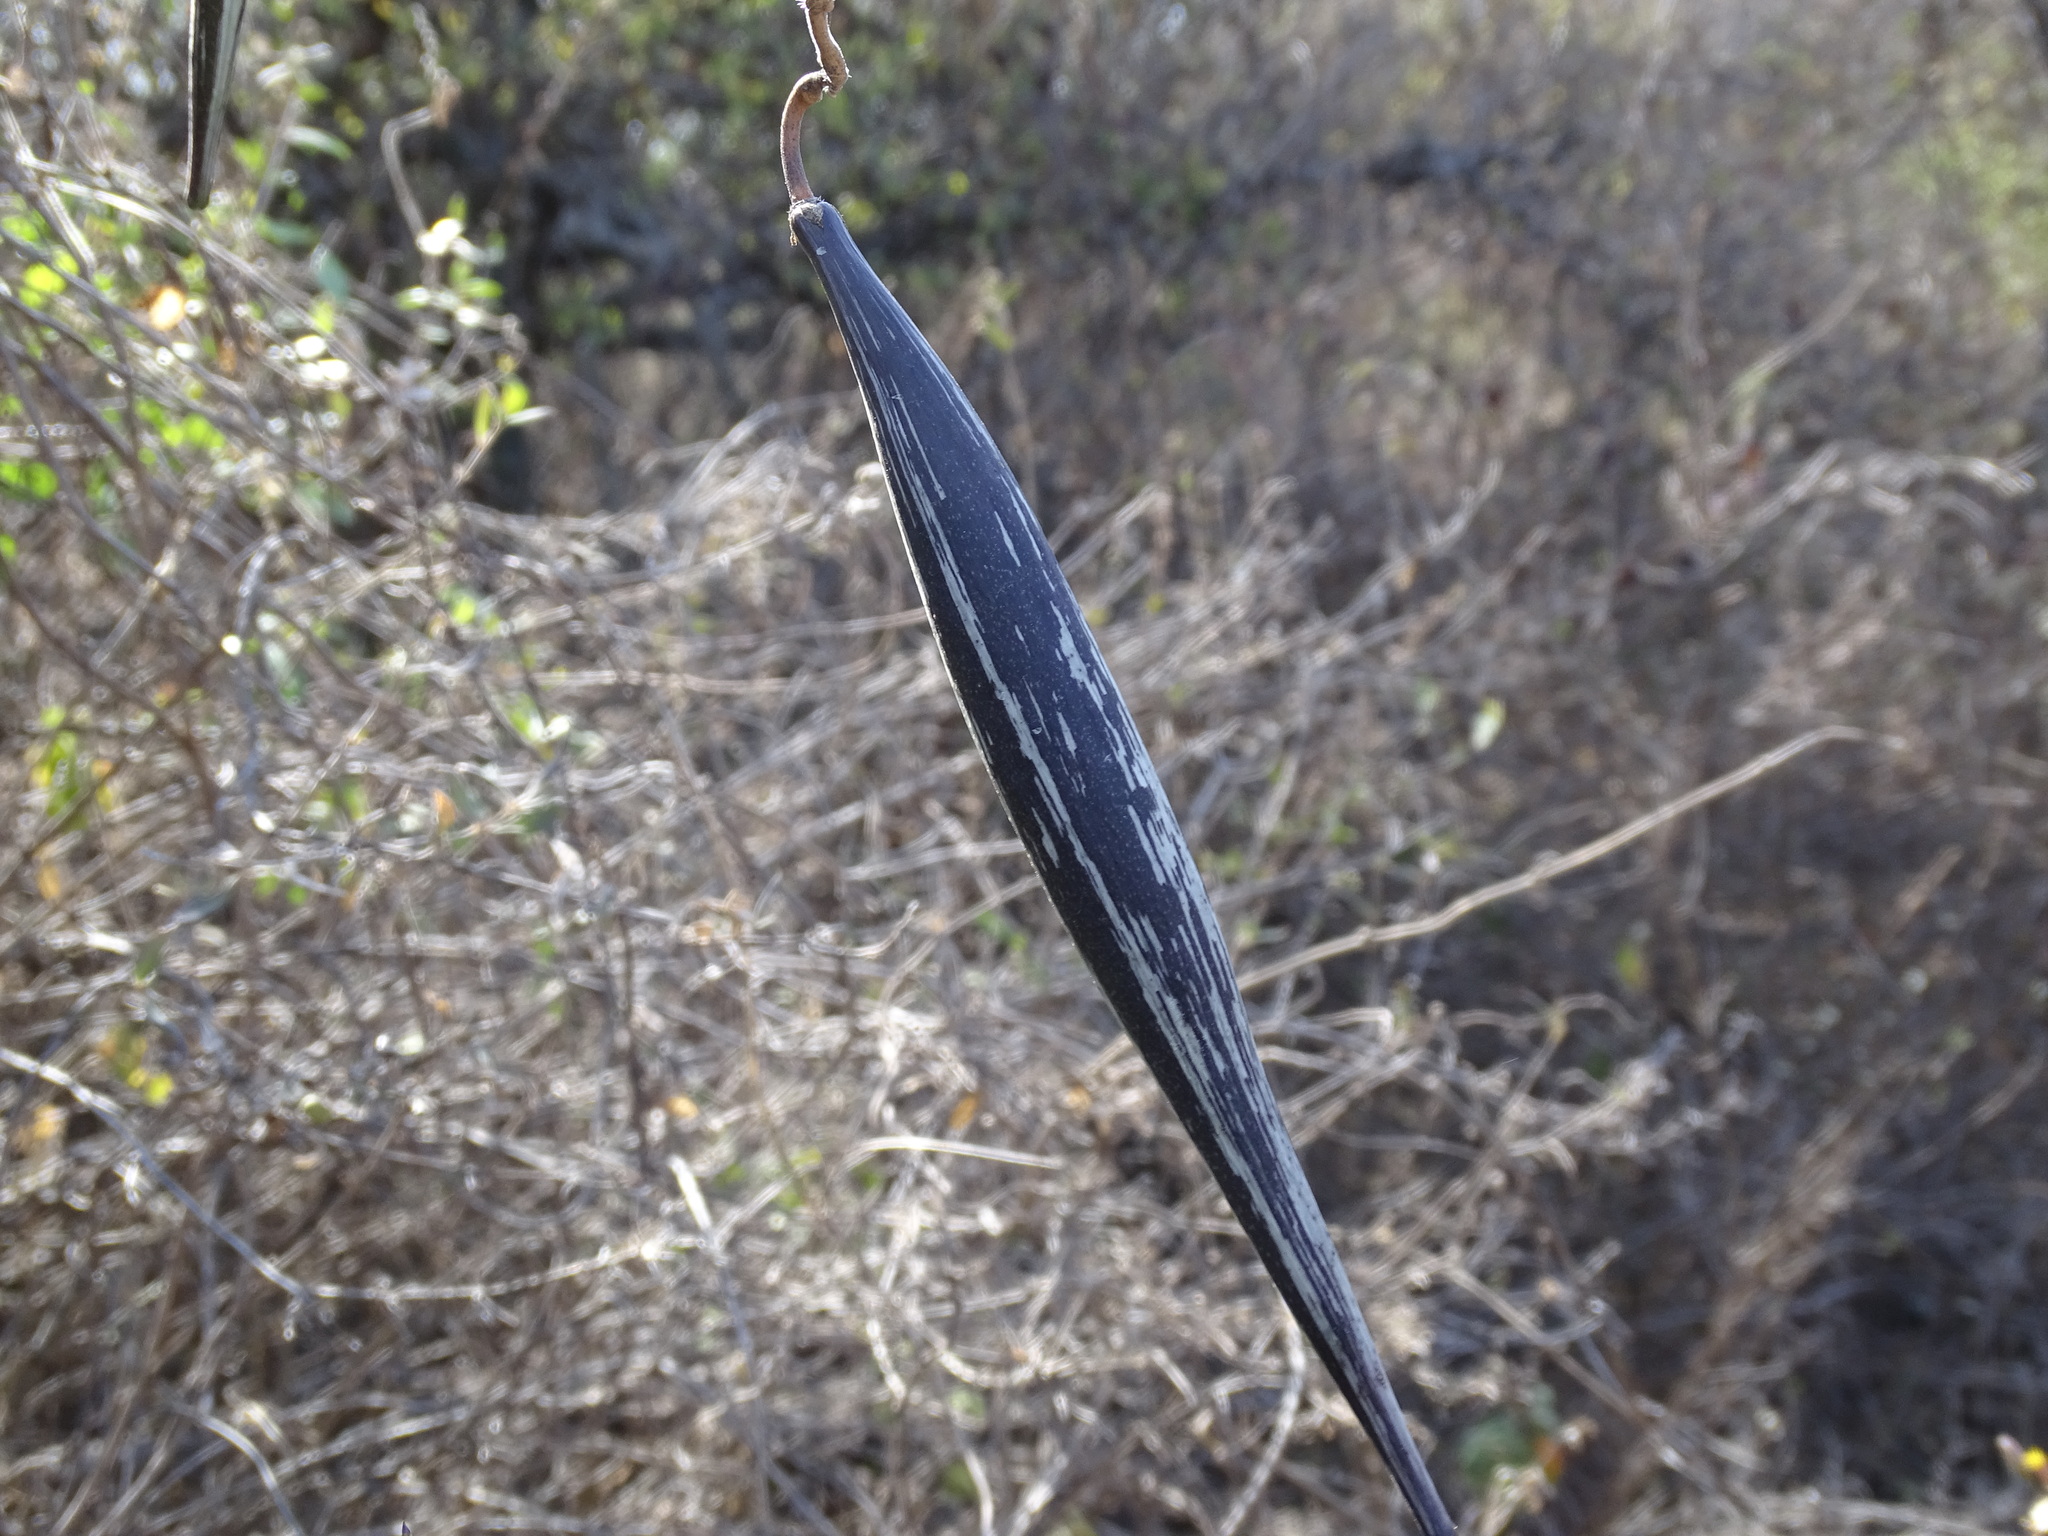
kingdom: Plantae
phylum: Tracheophyta
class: Magnoliopsida
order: Gentianales
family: Apocynaceae
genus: Matelea
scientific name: Matelea pilosa
